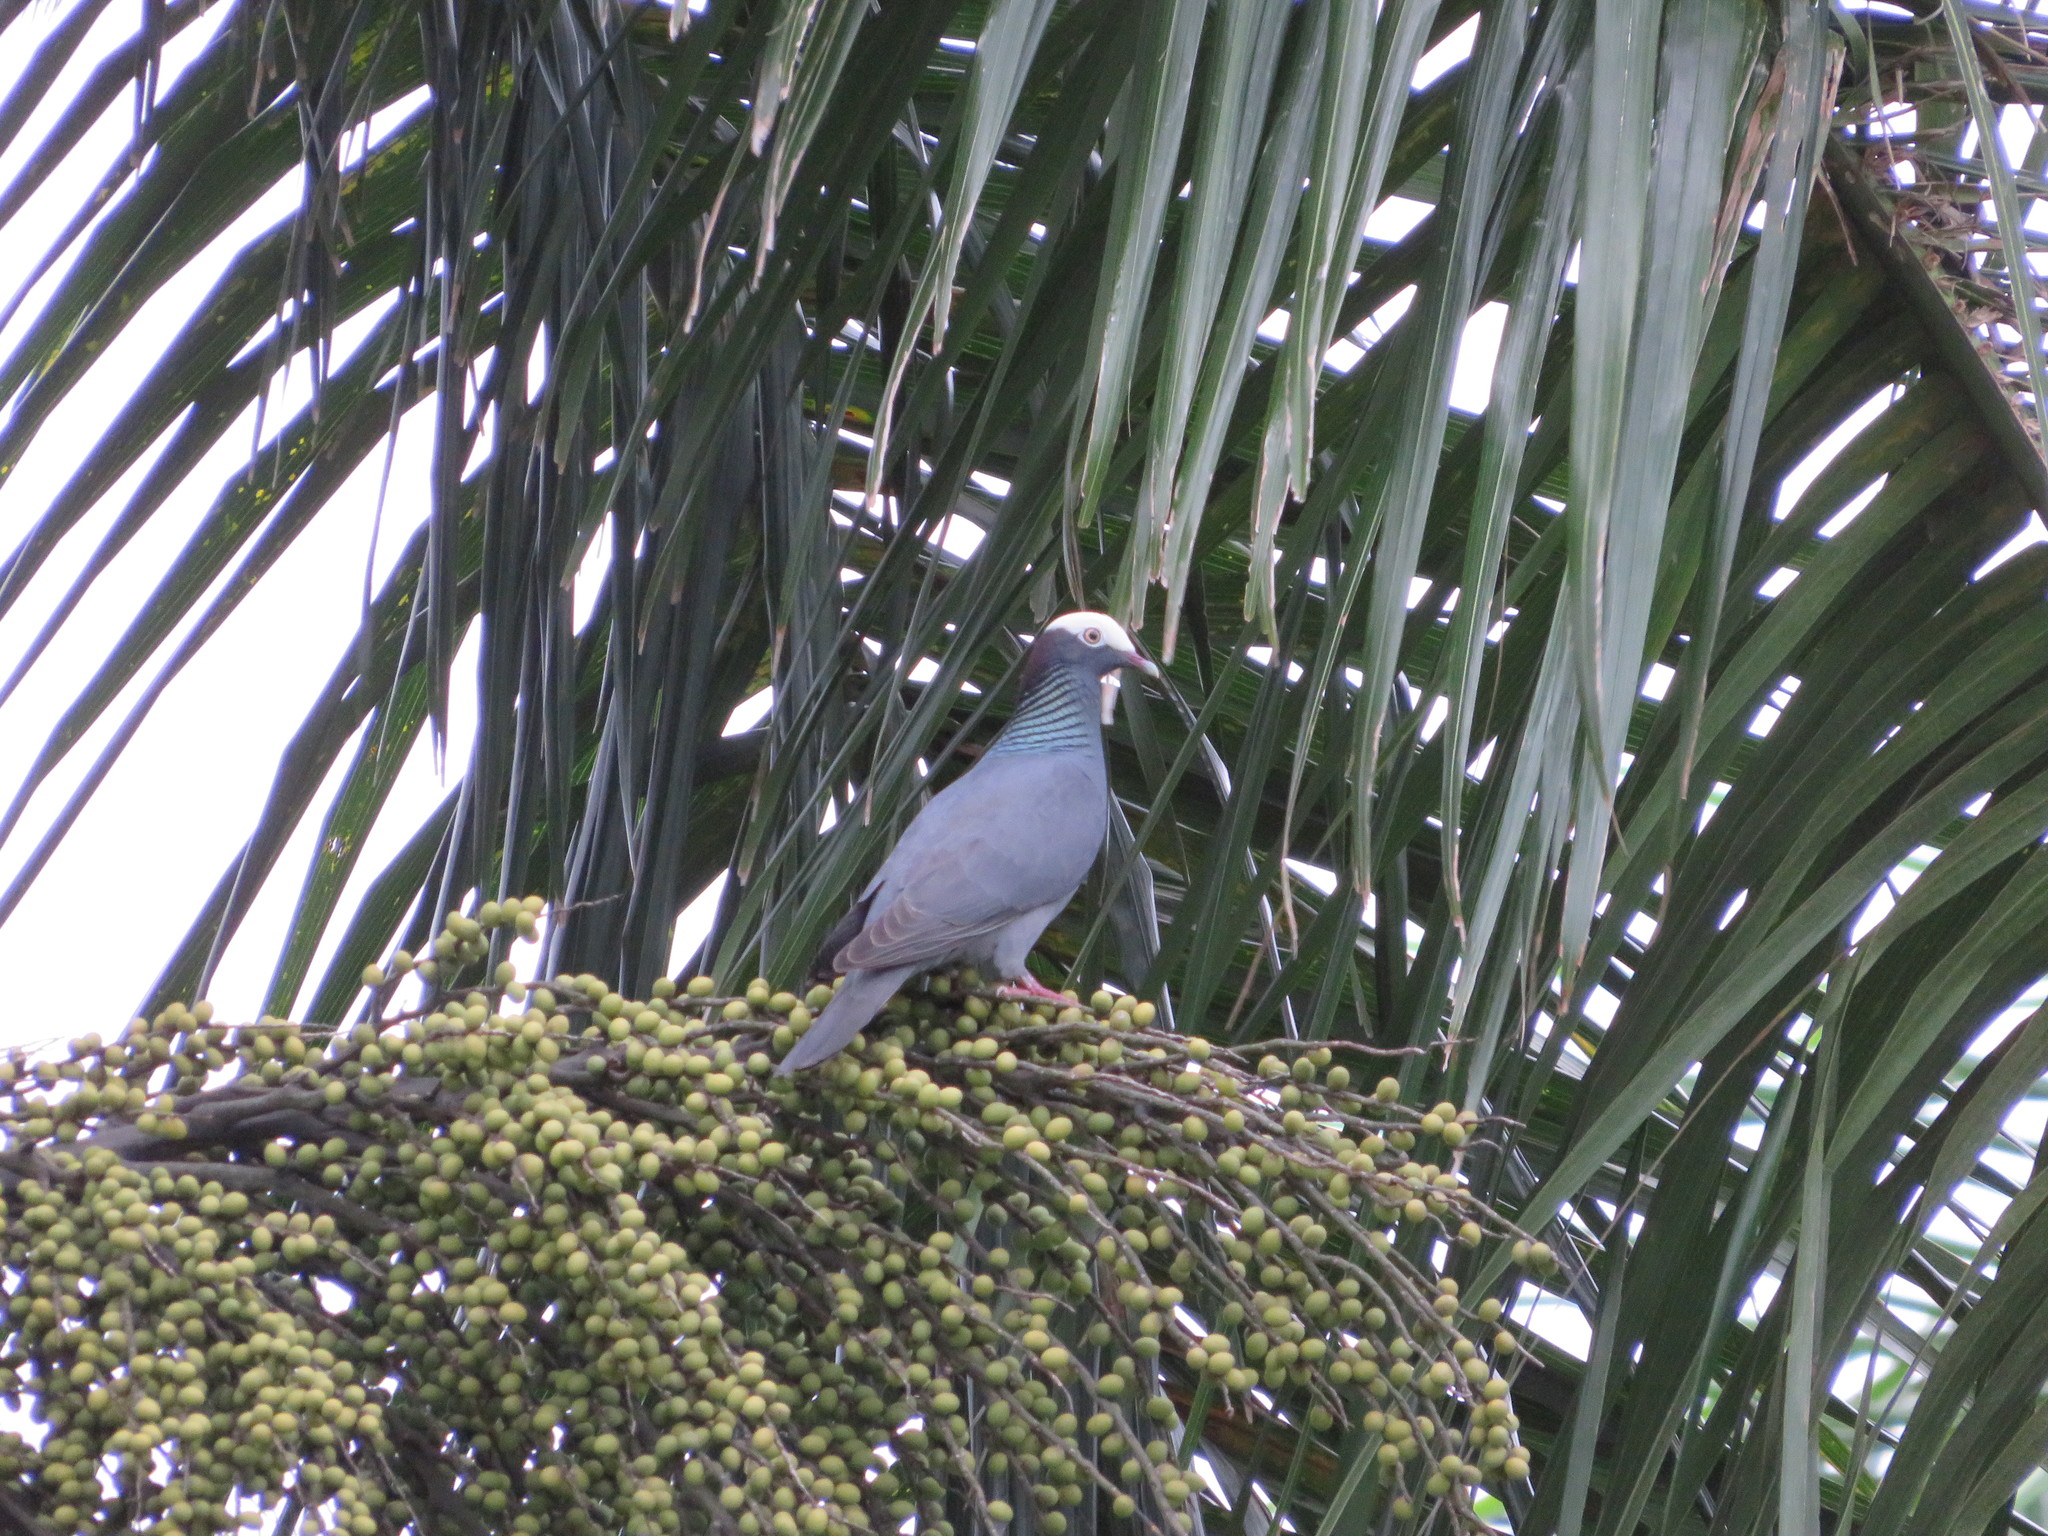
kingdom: Animalia
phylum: Chordata
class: Aves
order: Columbiformes
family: Columbidae
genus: Patagioenas
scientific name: Patagioenas leucocephala
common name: White-crowned pigeon
